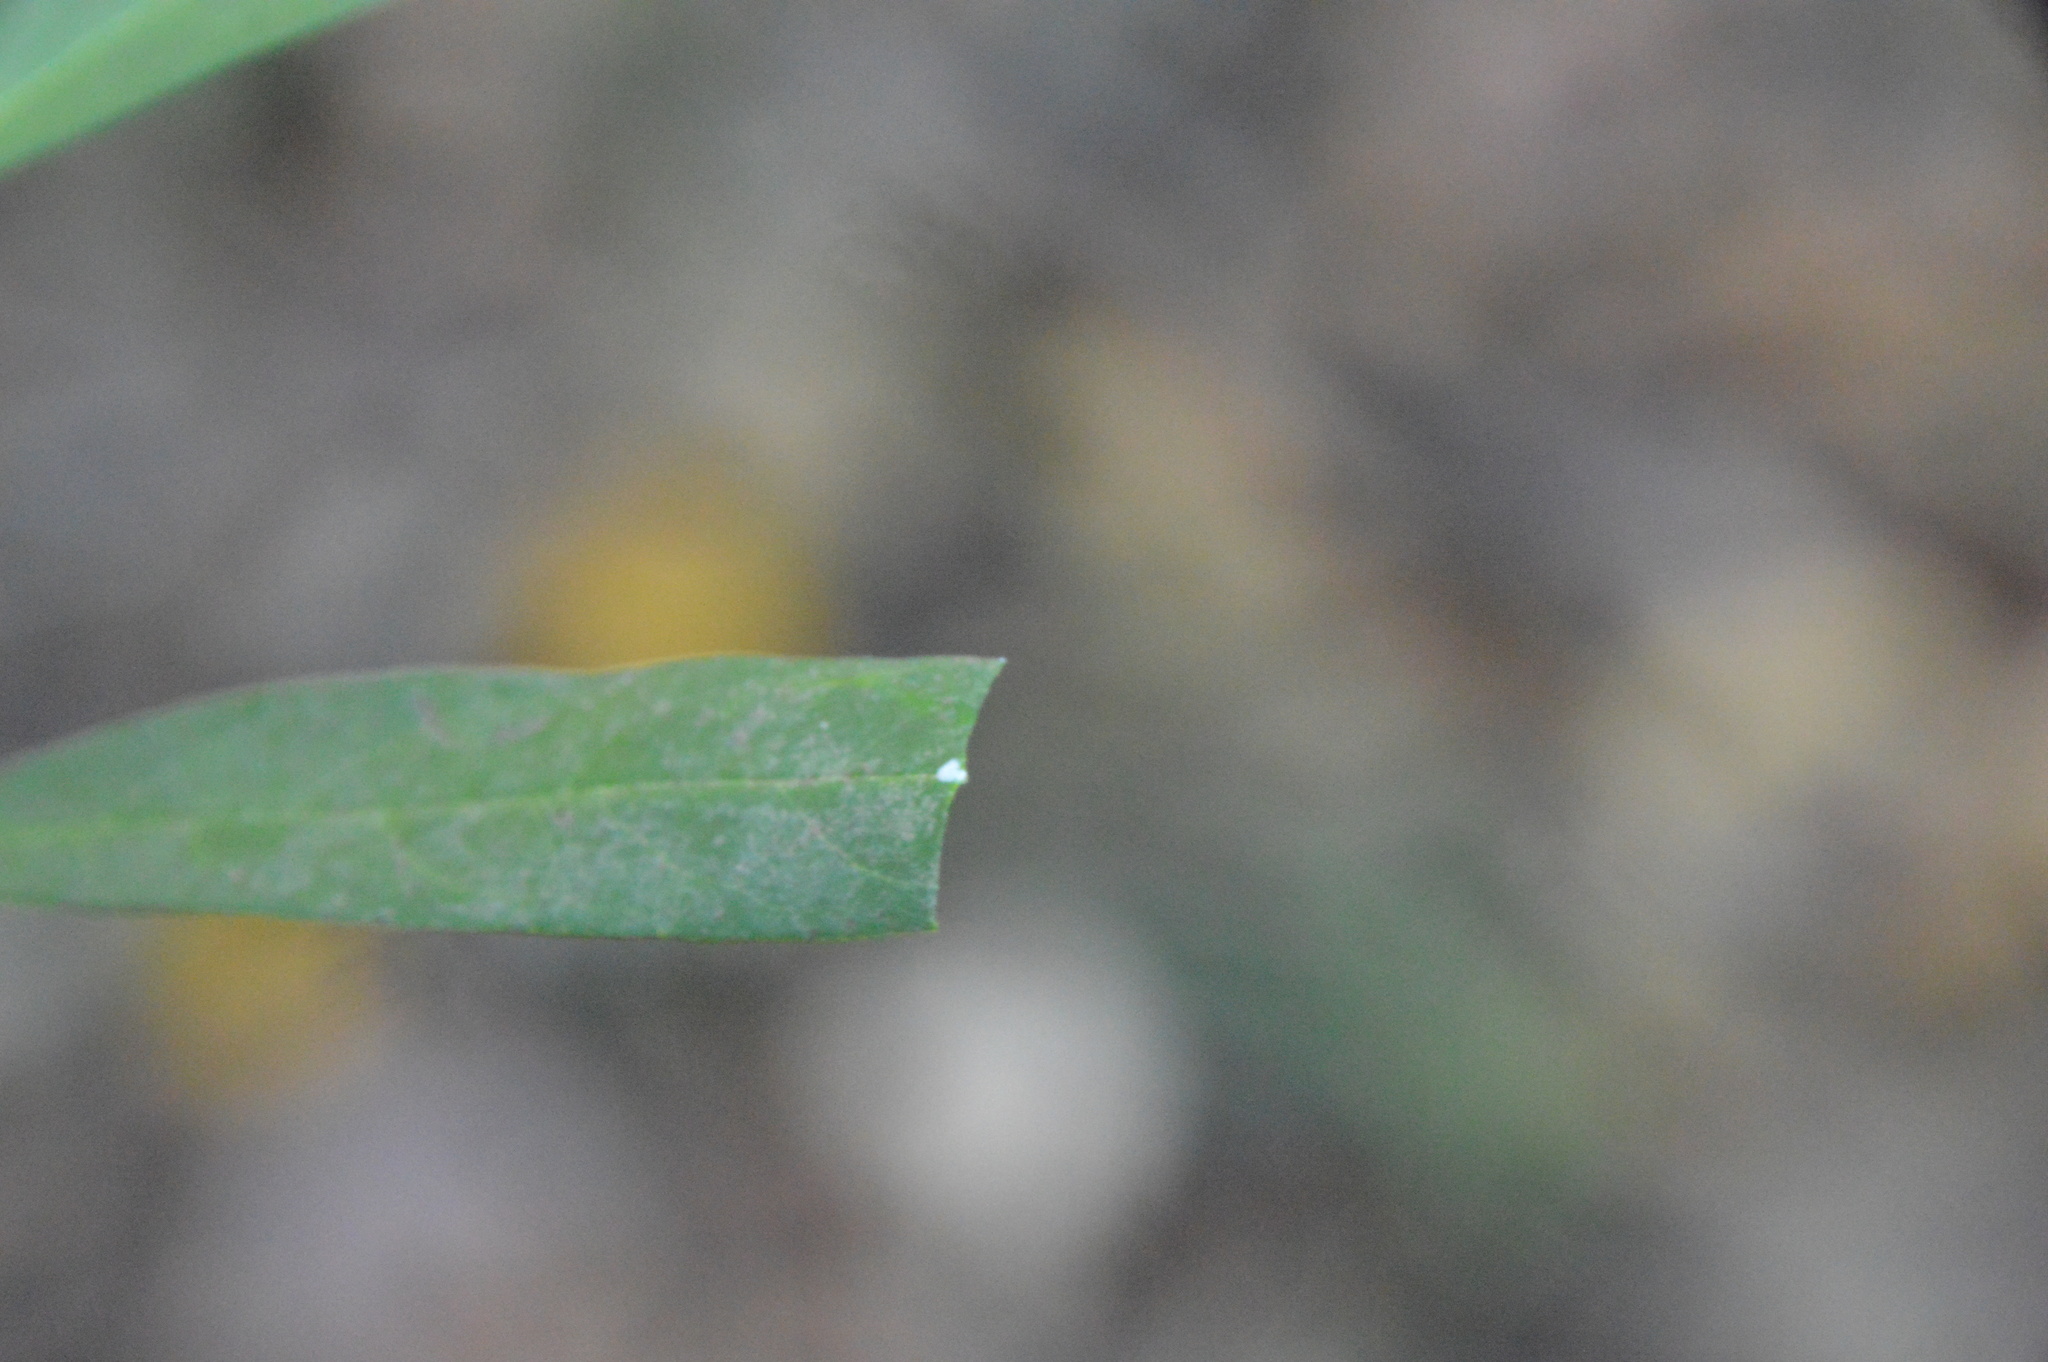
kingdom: Plantae
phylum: Tracheophyta
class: Magnoliopsida
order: Gentianales
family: Apocynaceae
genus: Asclepias
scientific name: Asclepias perennis
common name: Smooth-seed milkweed
